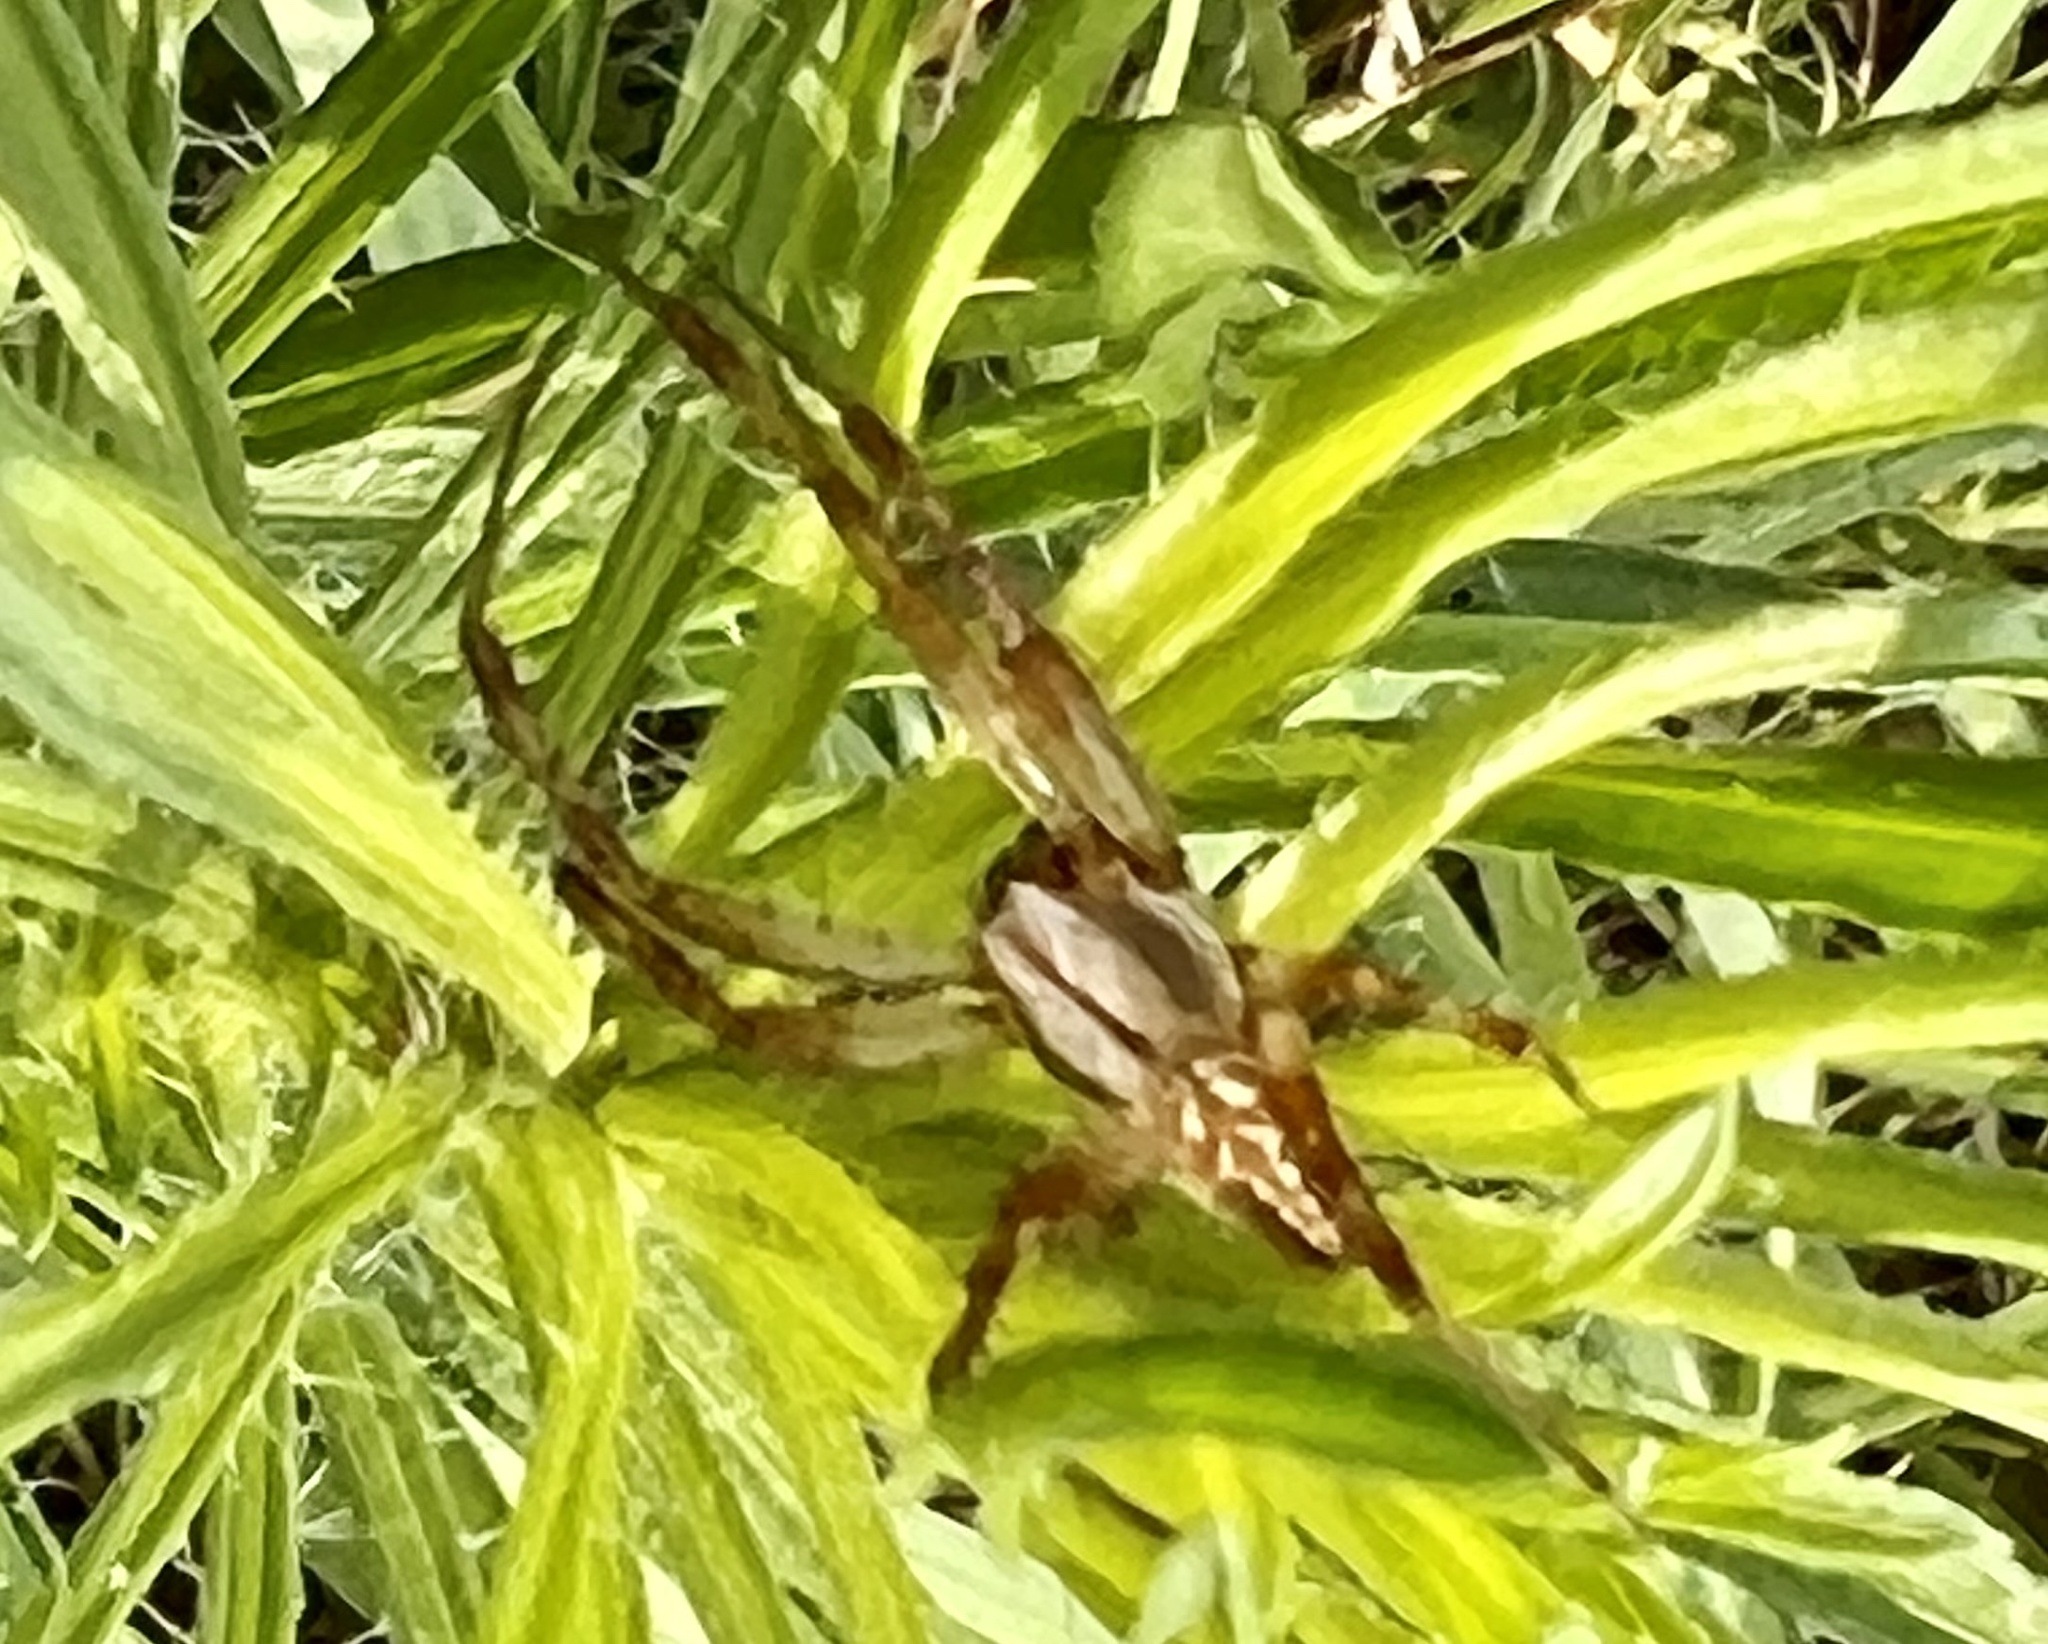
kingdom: Animalia
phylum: Arthropoda
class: Arachnida
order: Araneae
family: Araneidae
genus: Neoscona
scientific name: Neoscona oaxacensis
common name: Orb weavers
